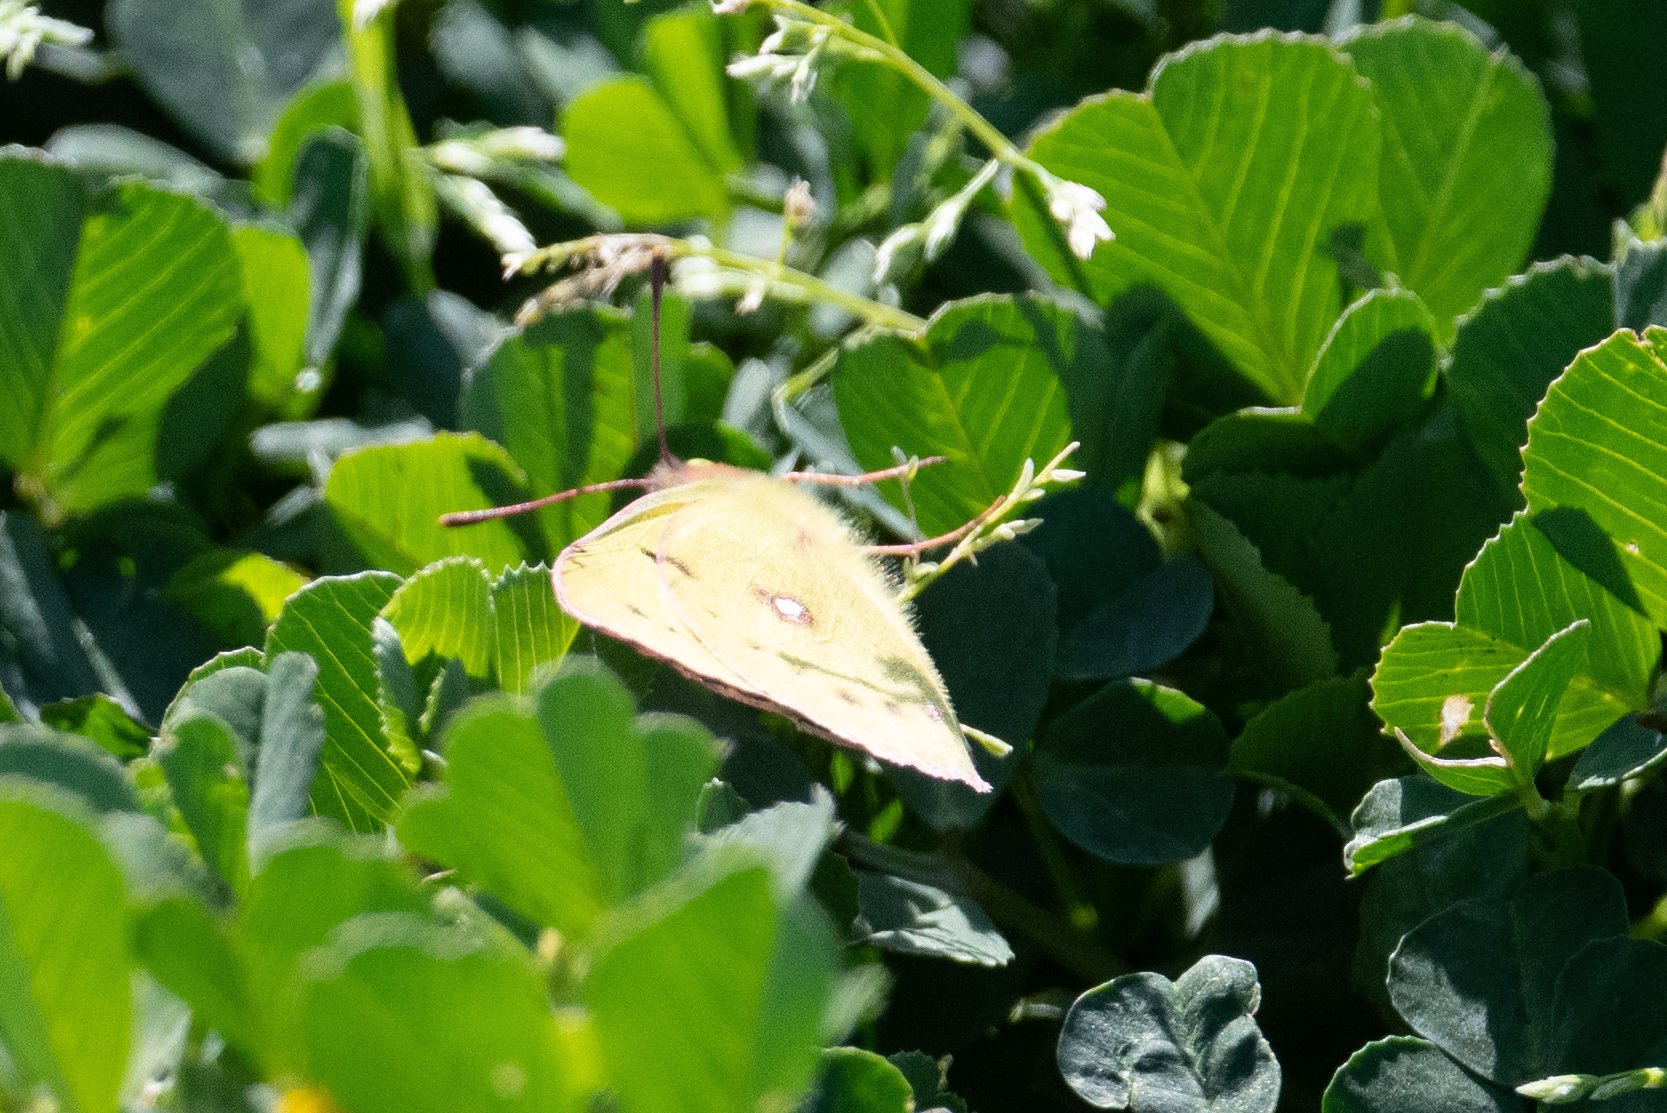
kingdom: Animalia
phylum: Arthropoda
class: Insecta
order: Lepidoptera
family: Pieridae
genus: Colias
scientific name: Colias eurytheme
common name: Alfalfa butterfly
